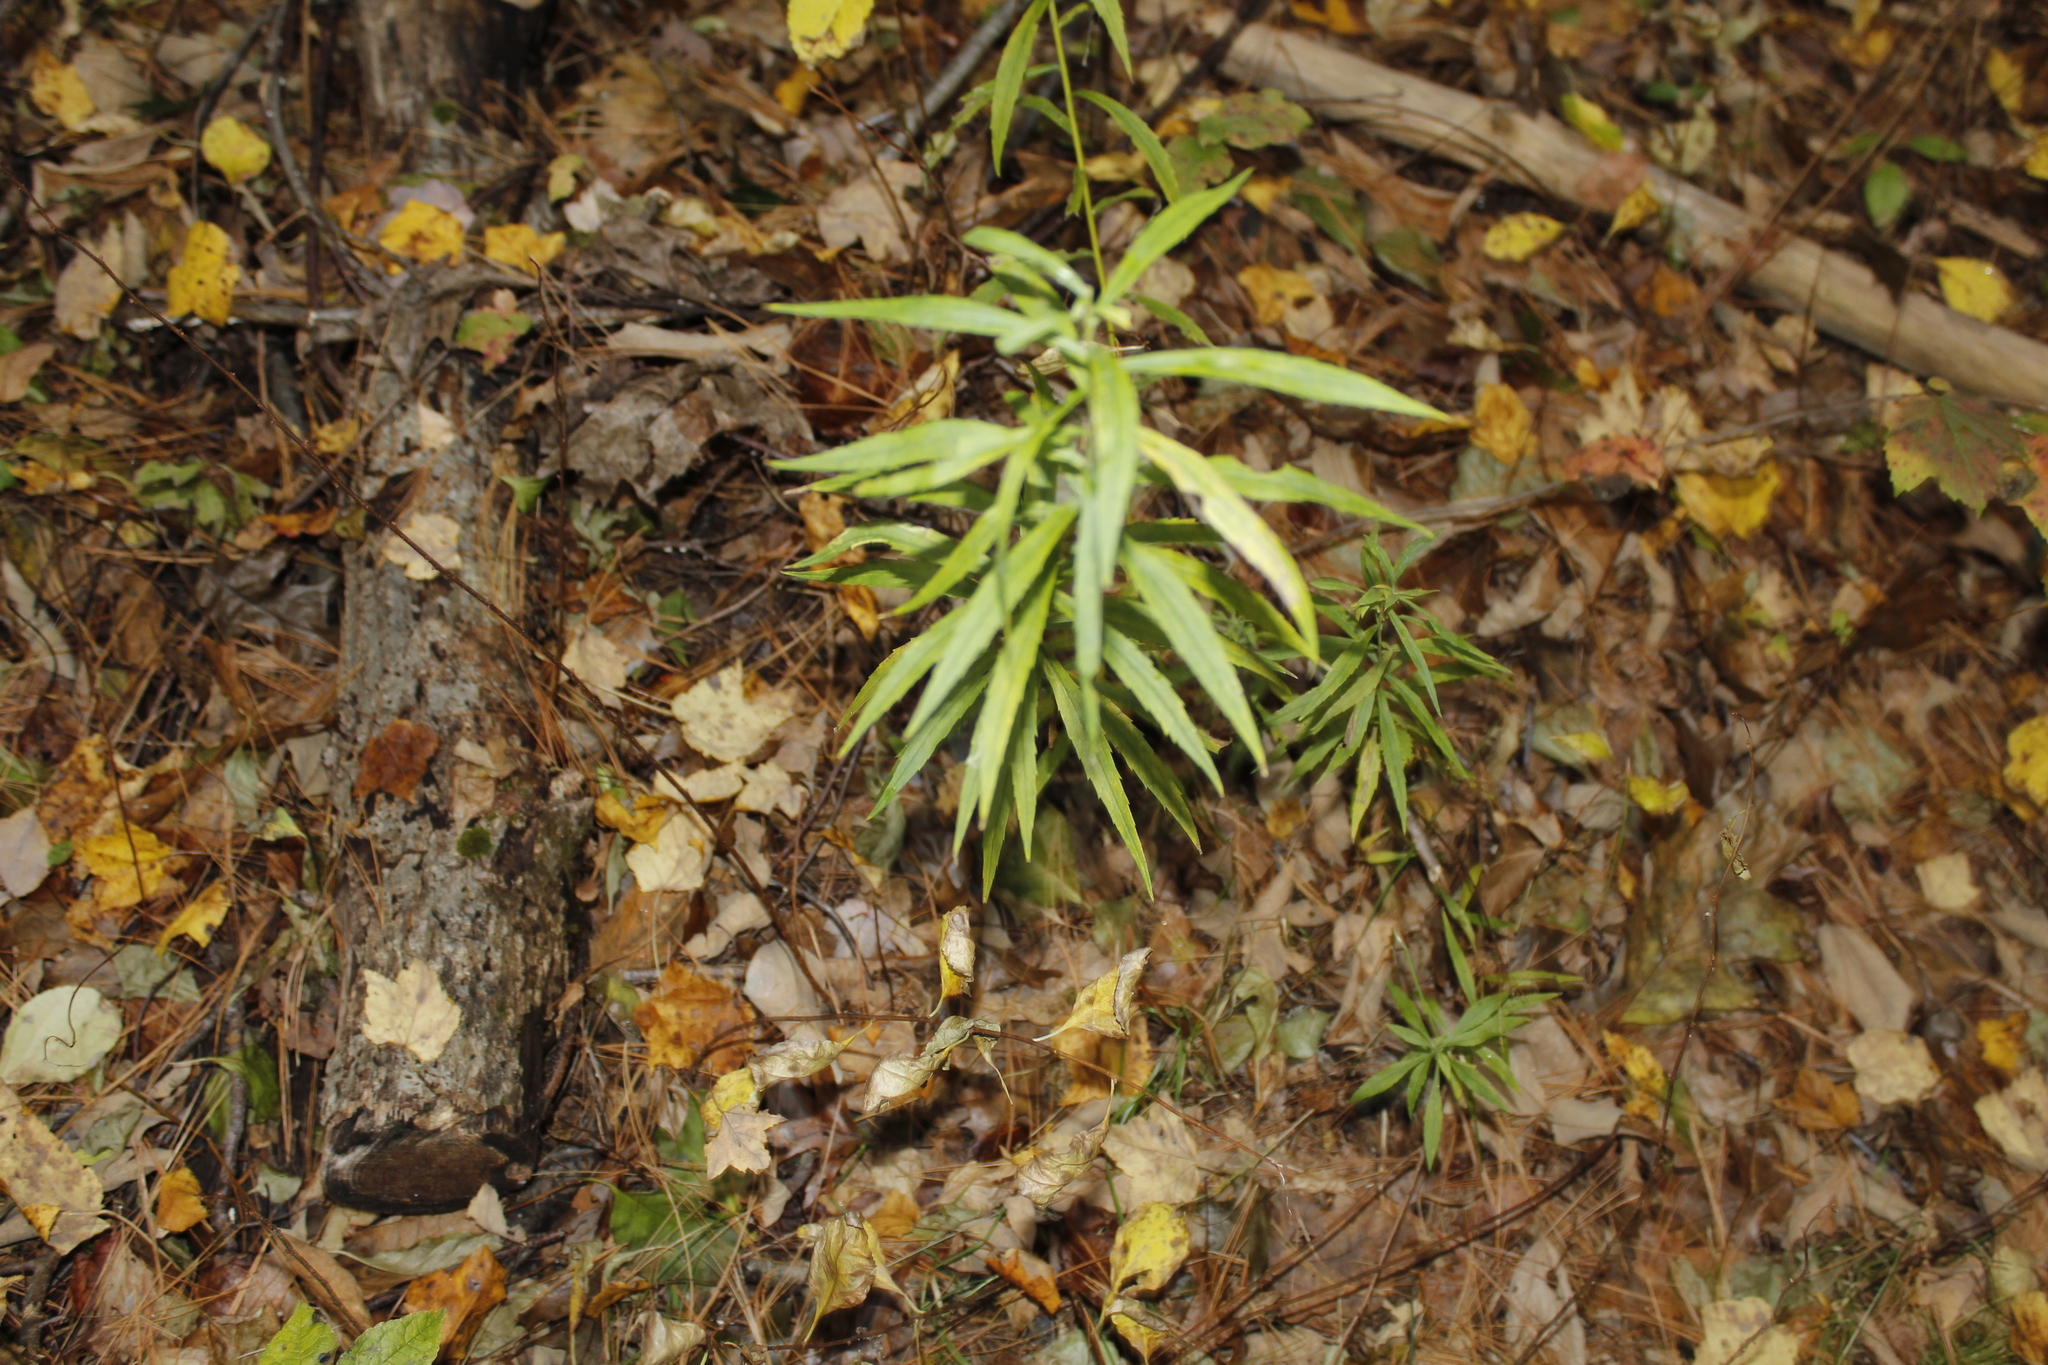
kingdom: Fungi
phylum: Ascomycota
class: Leotiomycetes
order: Helotiales
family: Erysiphaceae
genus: Golovinomyces
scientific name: Golovinomyces asterum
